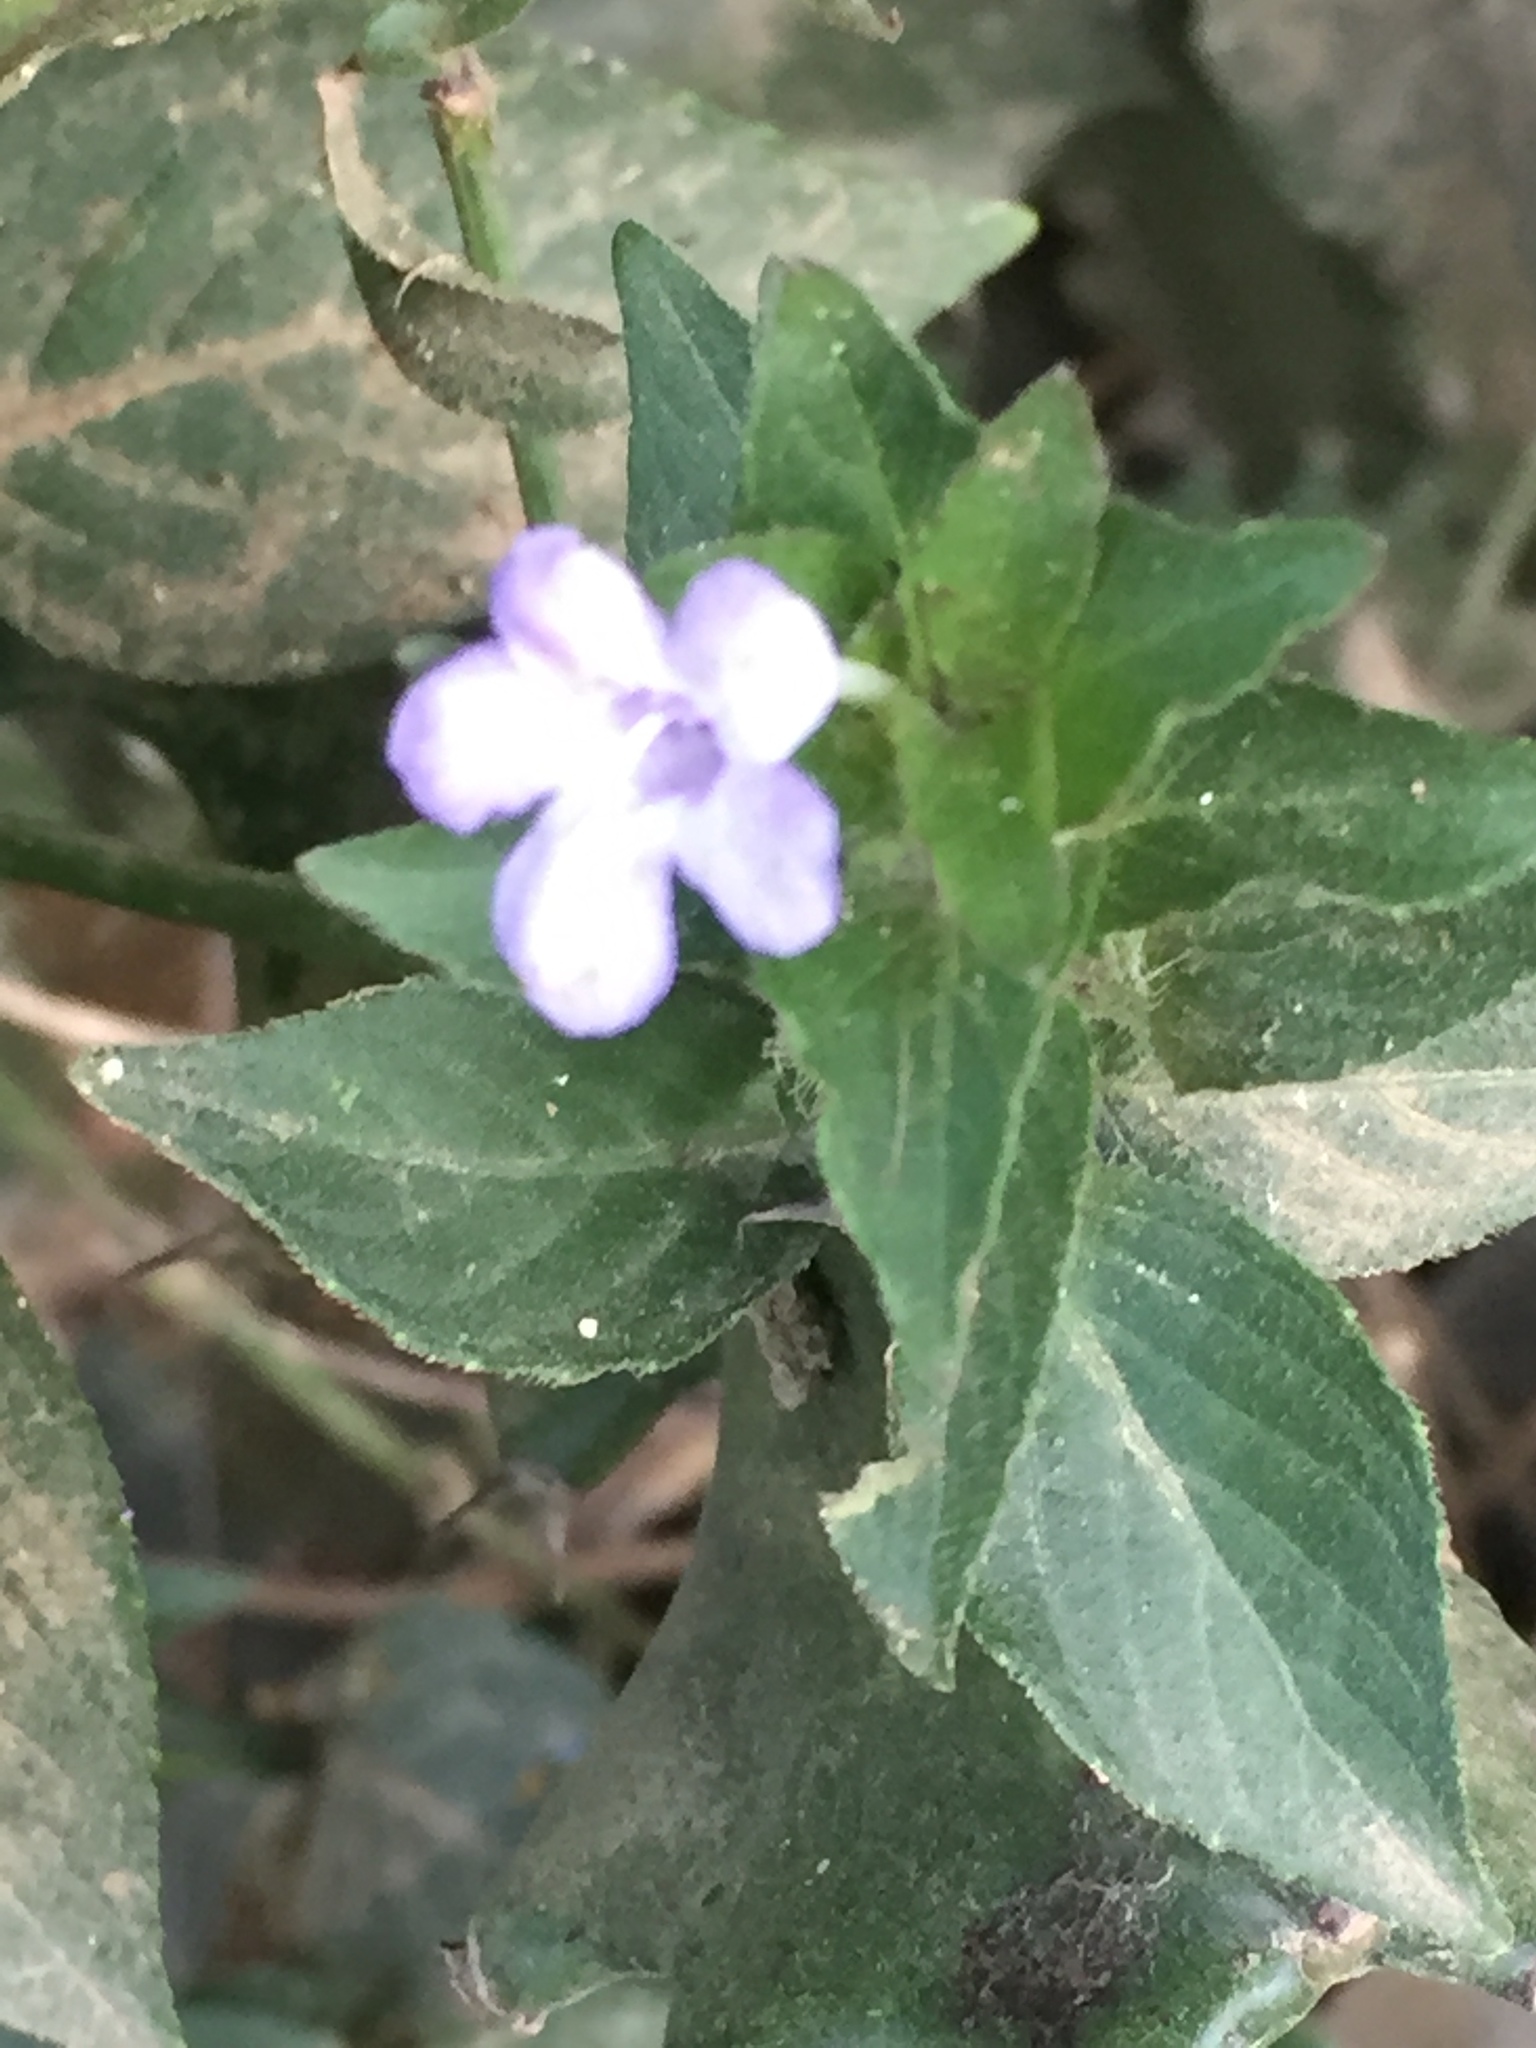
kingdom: Plantae
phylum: Tracheophyta
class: Magnoliopsida
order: Lamiales
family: Acanthaceae
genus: Ruellia
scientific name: Ruellia blechum
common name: Browne's blechum
